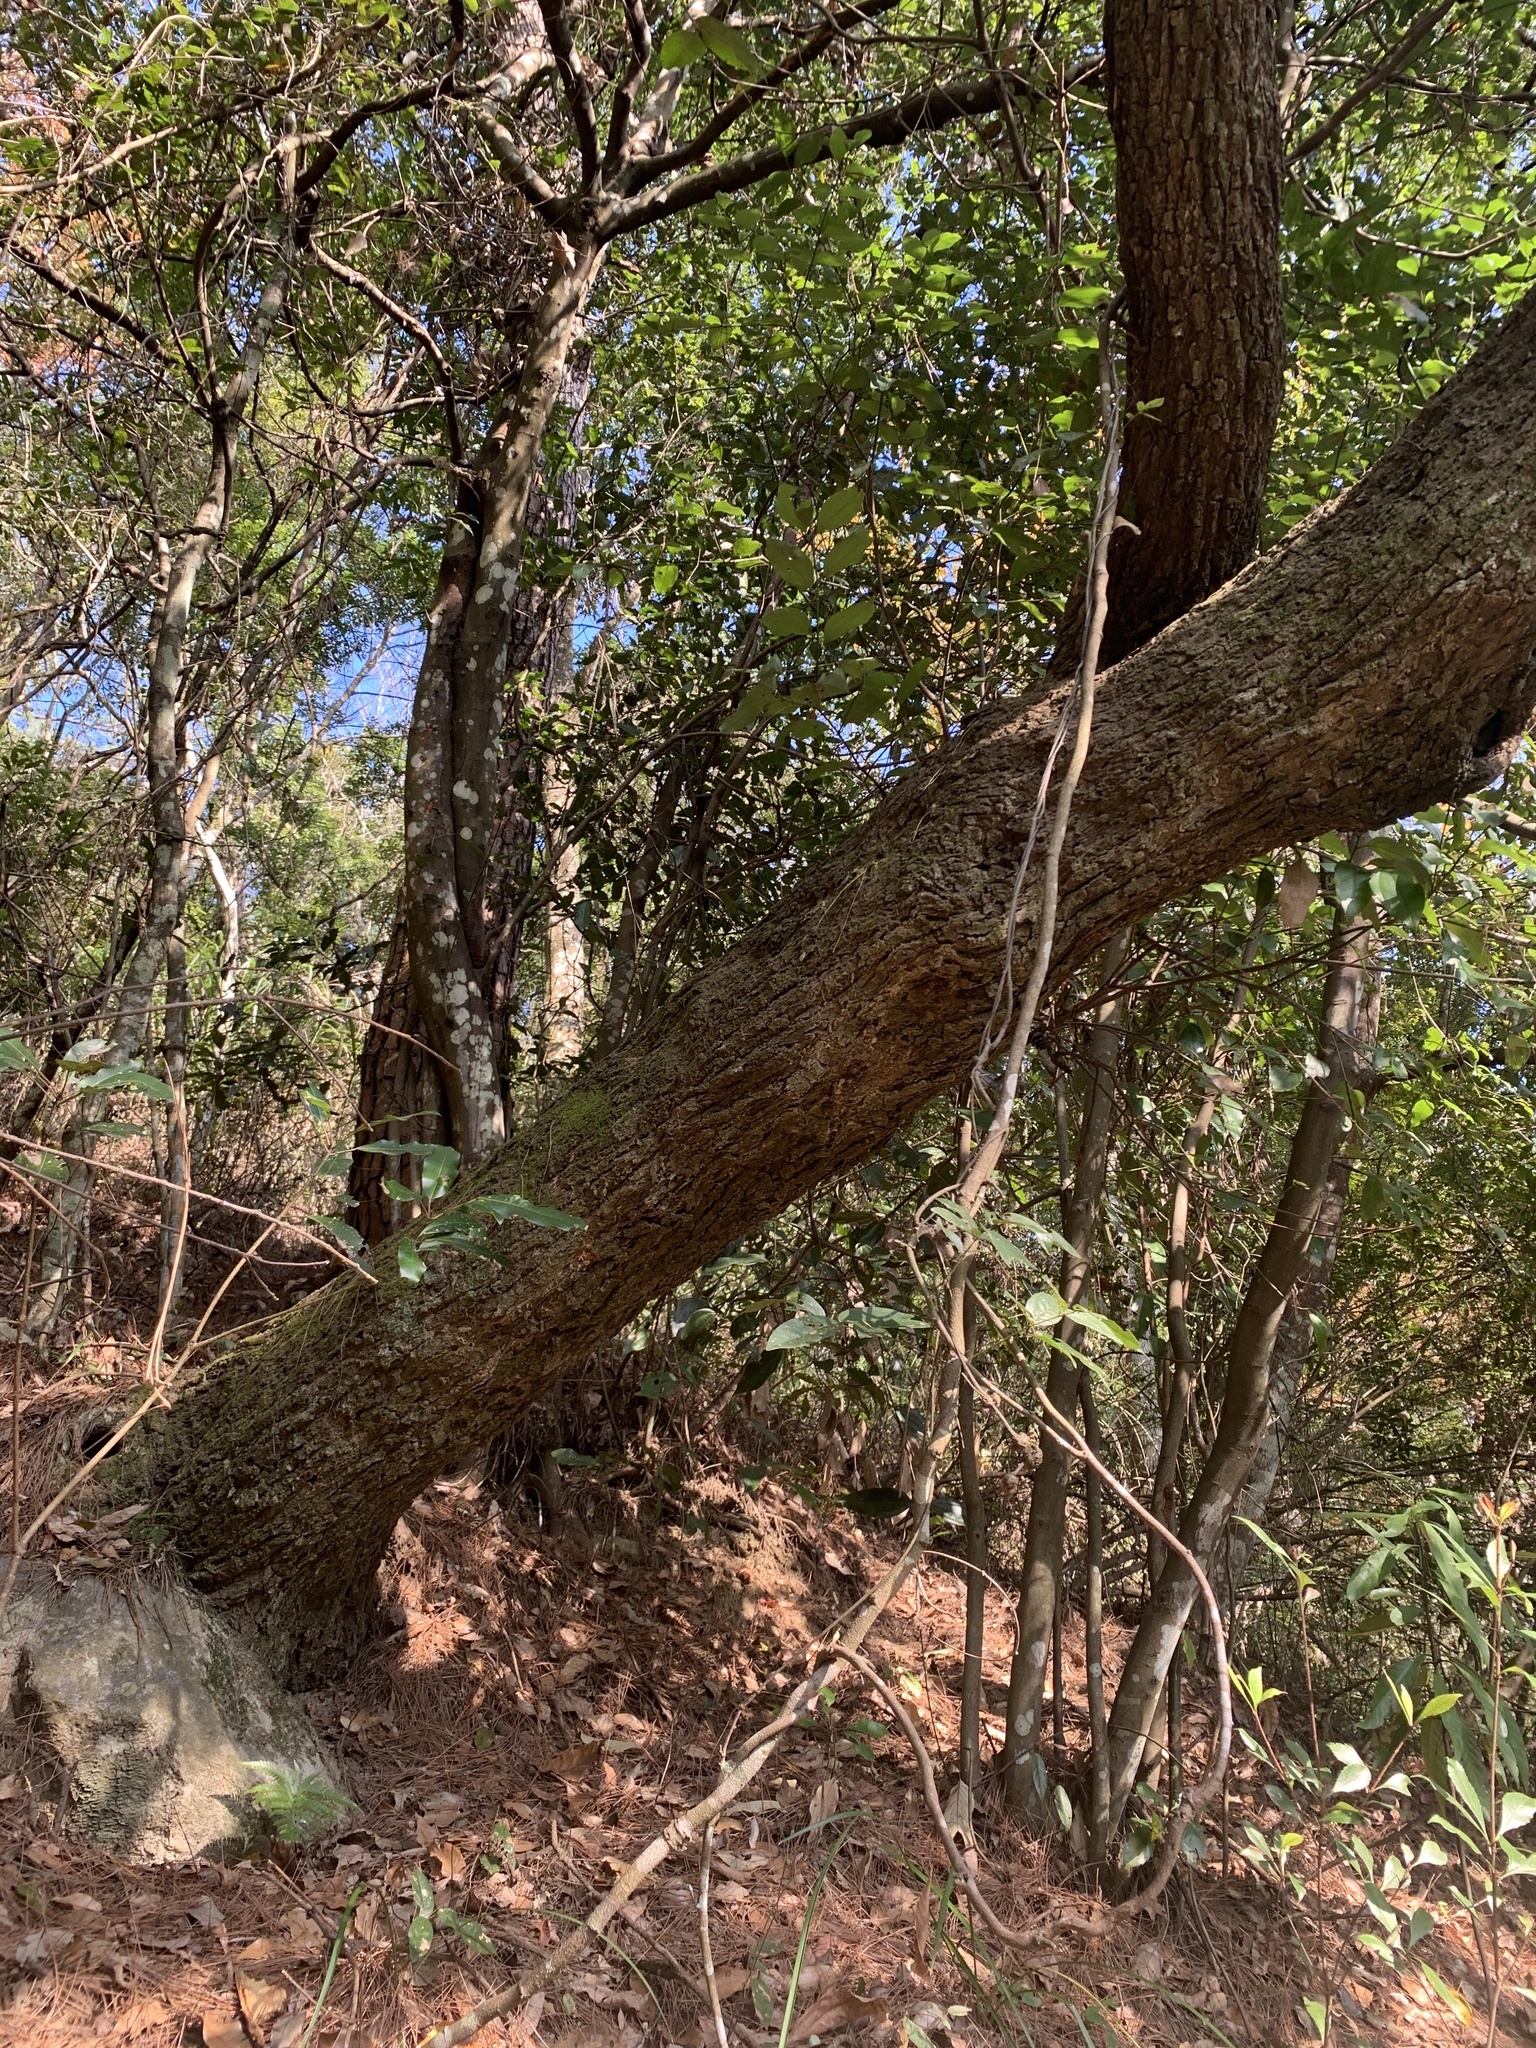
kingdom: Plantae
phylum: Tracheophyta
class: Magnoliopsida
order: Fagales
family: Fagaceae
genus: Quercus
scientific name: Quercus serrata
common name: Bao li
